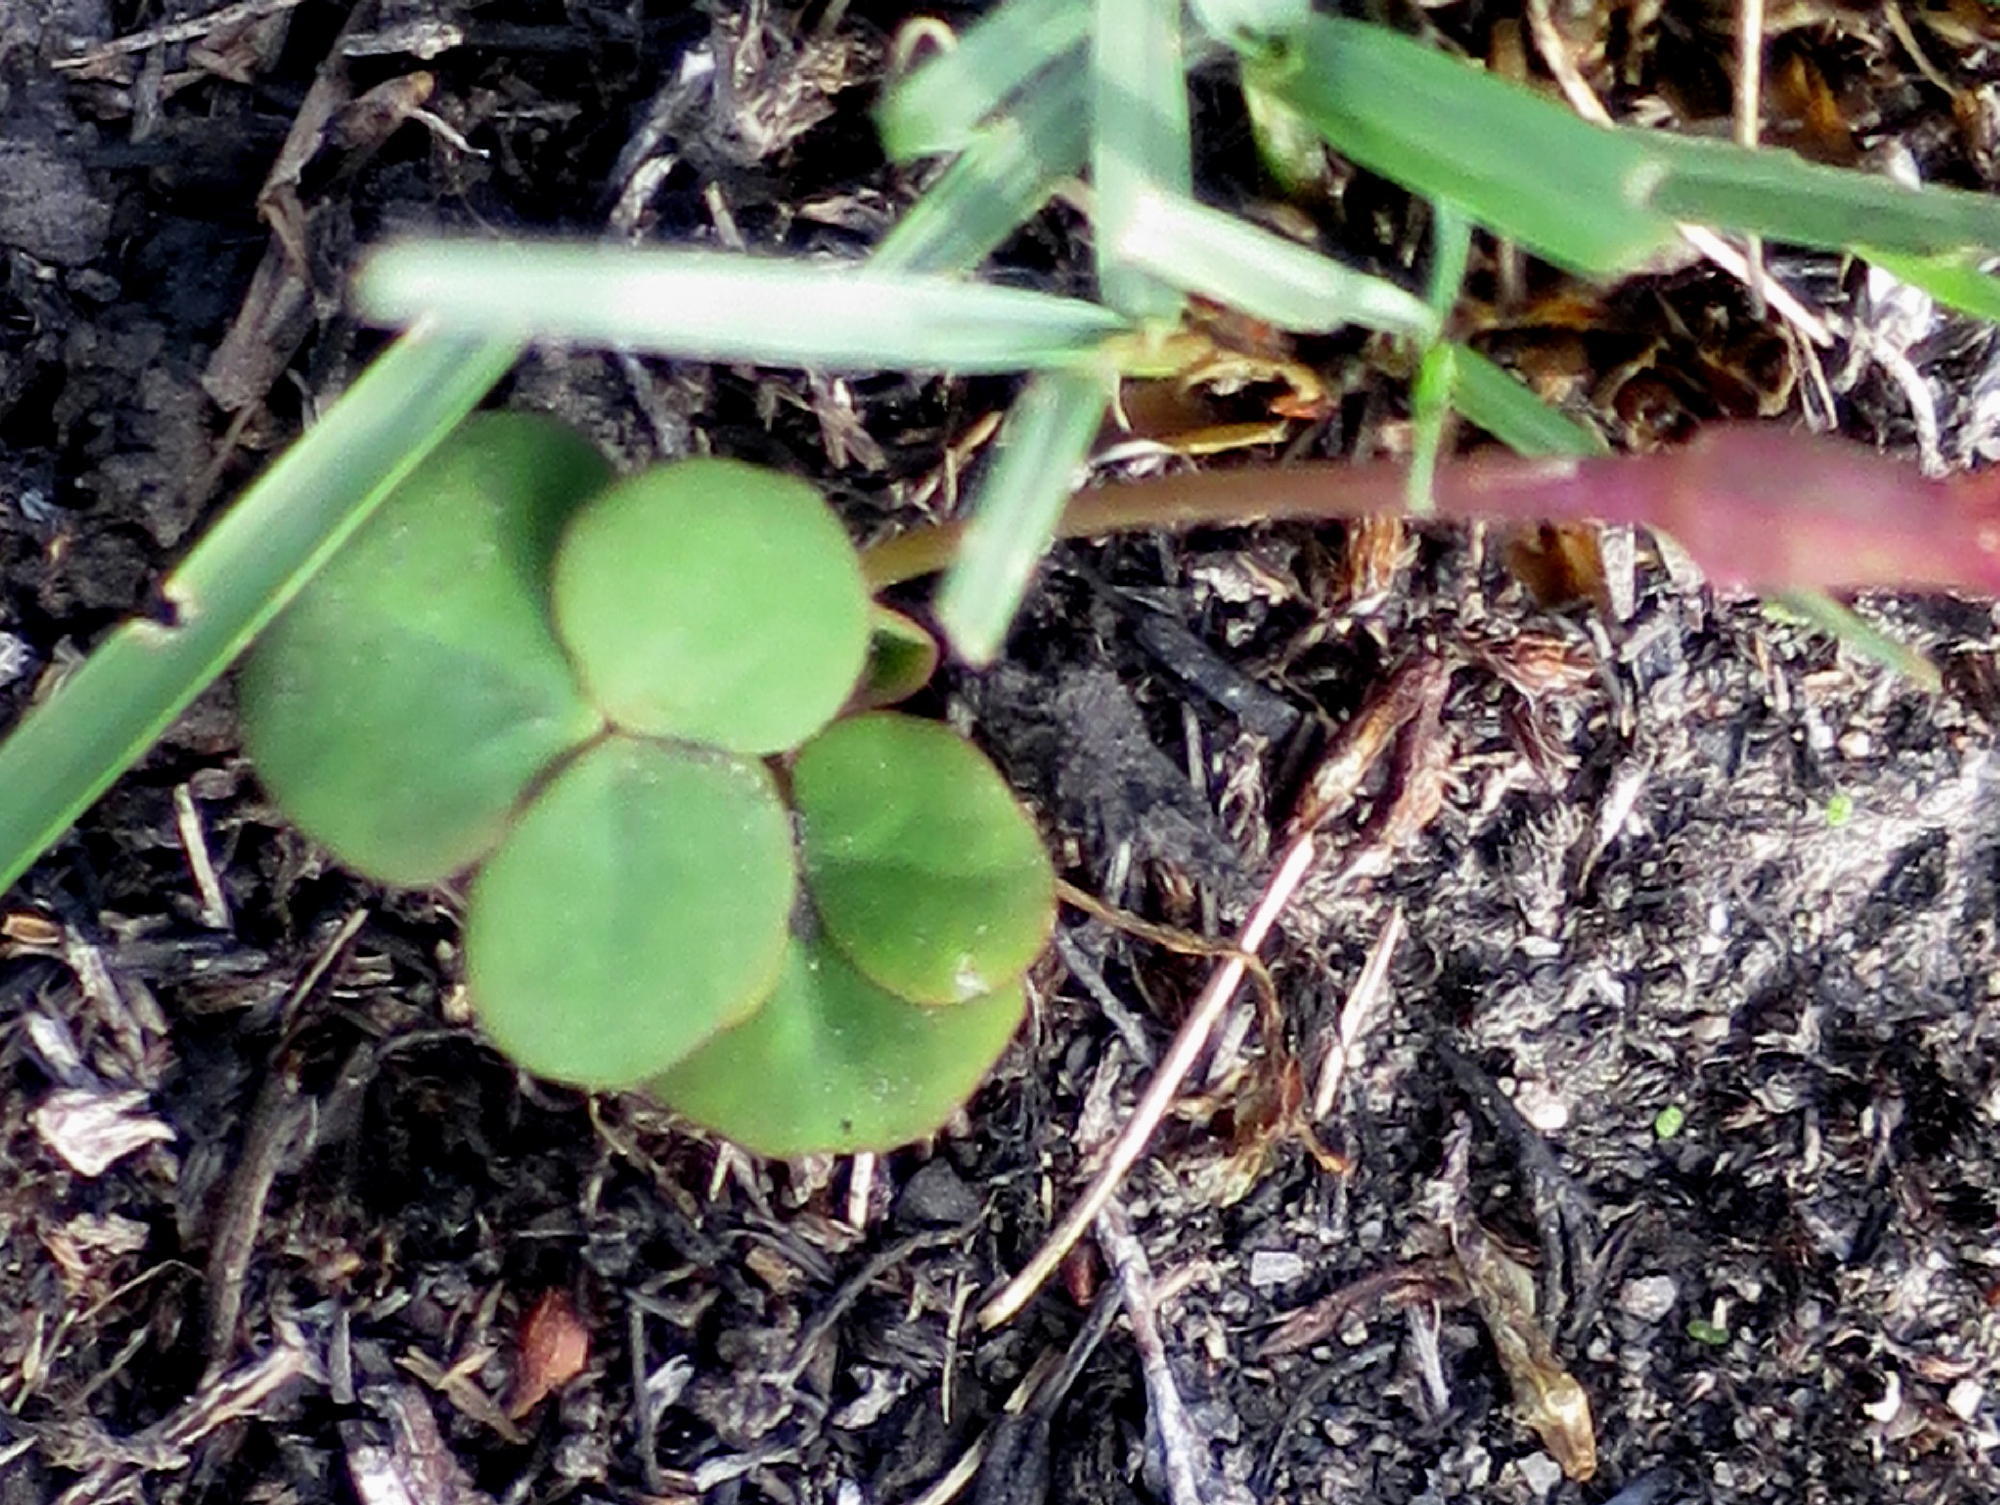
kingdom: Plantae
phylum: Tracheophyta
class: Magnoliopsida
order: Oxalidales
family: Oxalidaceae
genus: Oxalis
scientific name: Oxalis depressa
